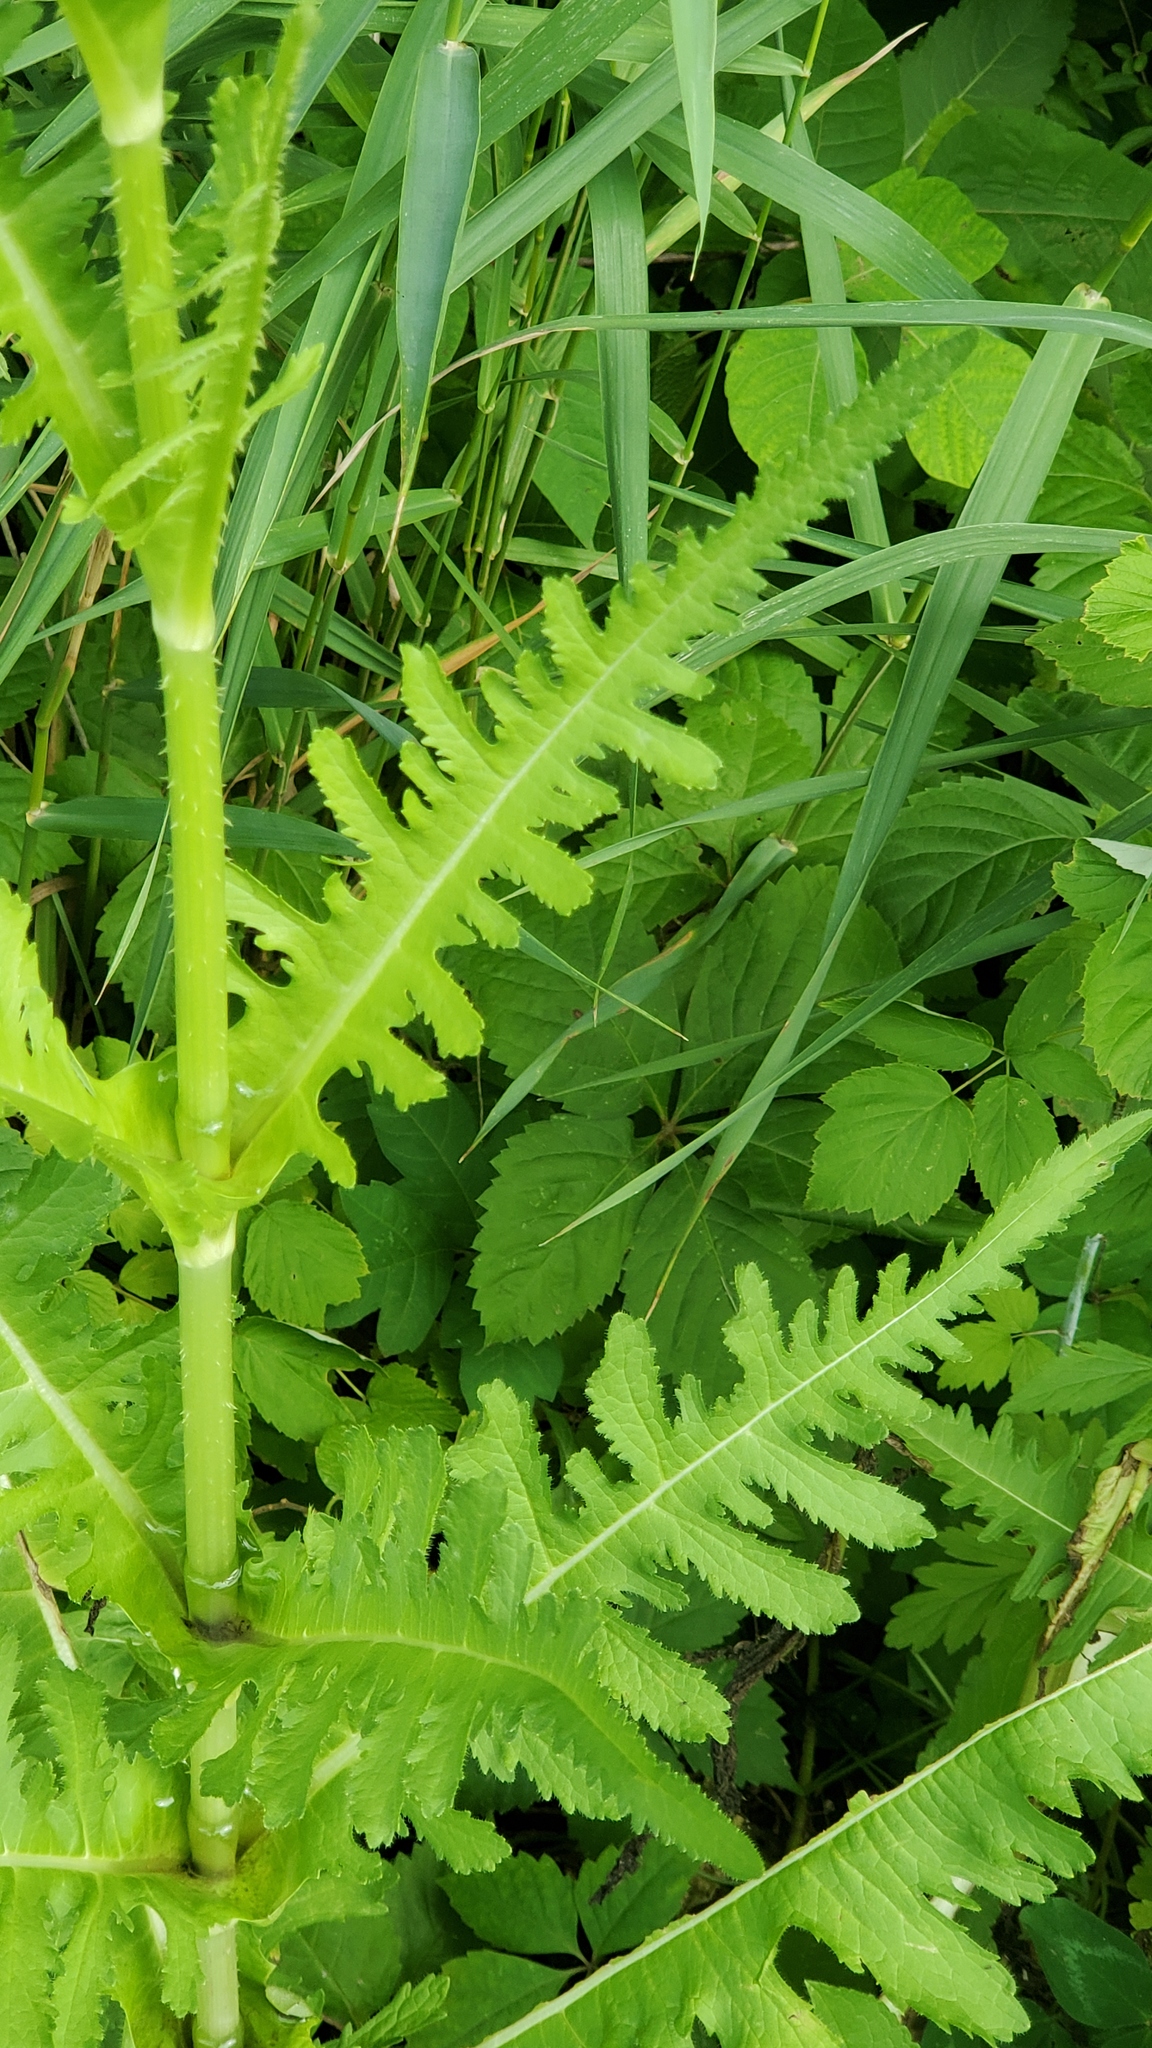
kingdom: Plantae
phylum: Tracheophyta
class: Magnoliopsida
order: Dipsacales
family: Caprifoliaceae
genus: Dipsacus
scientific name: Dipsacus laciniatus
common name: Cut-leaved teasel
